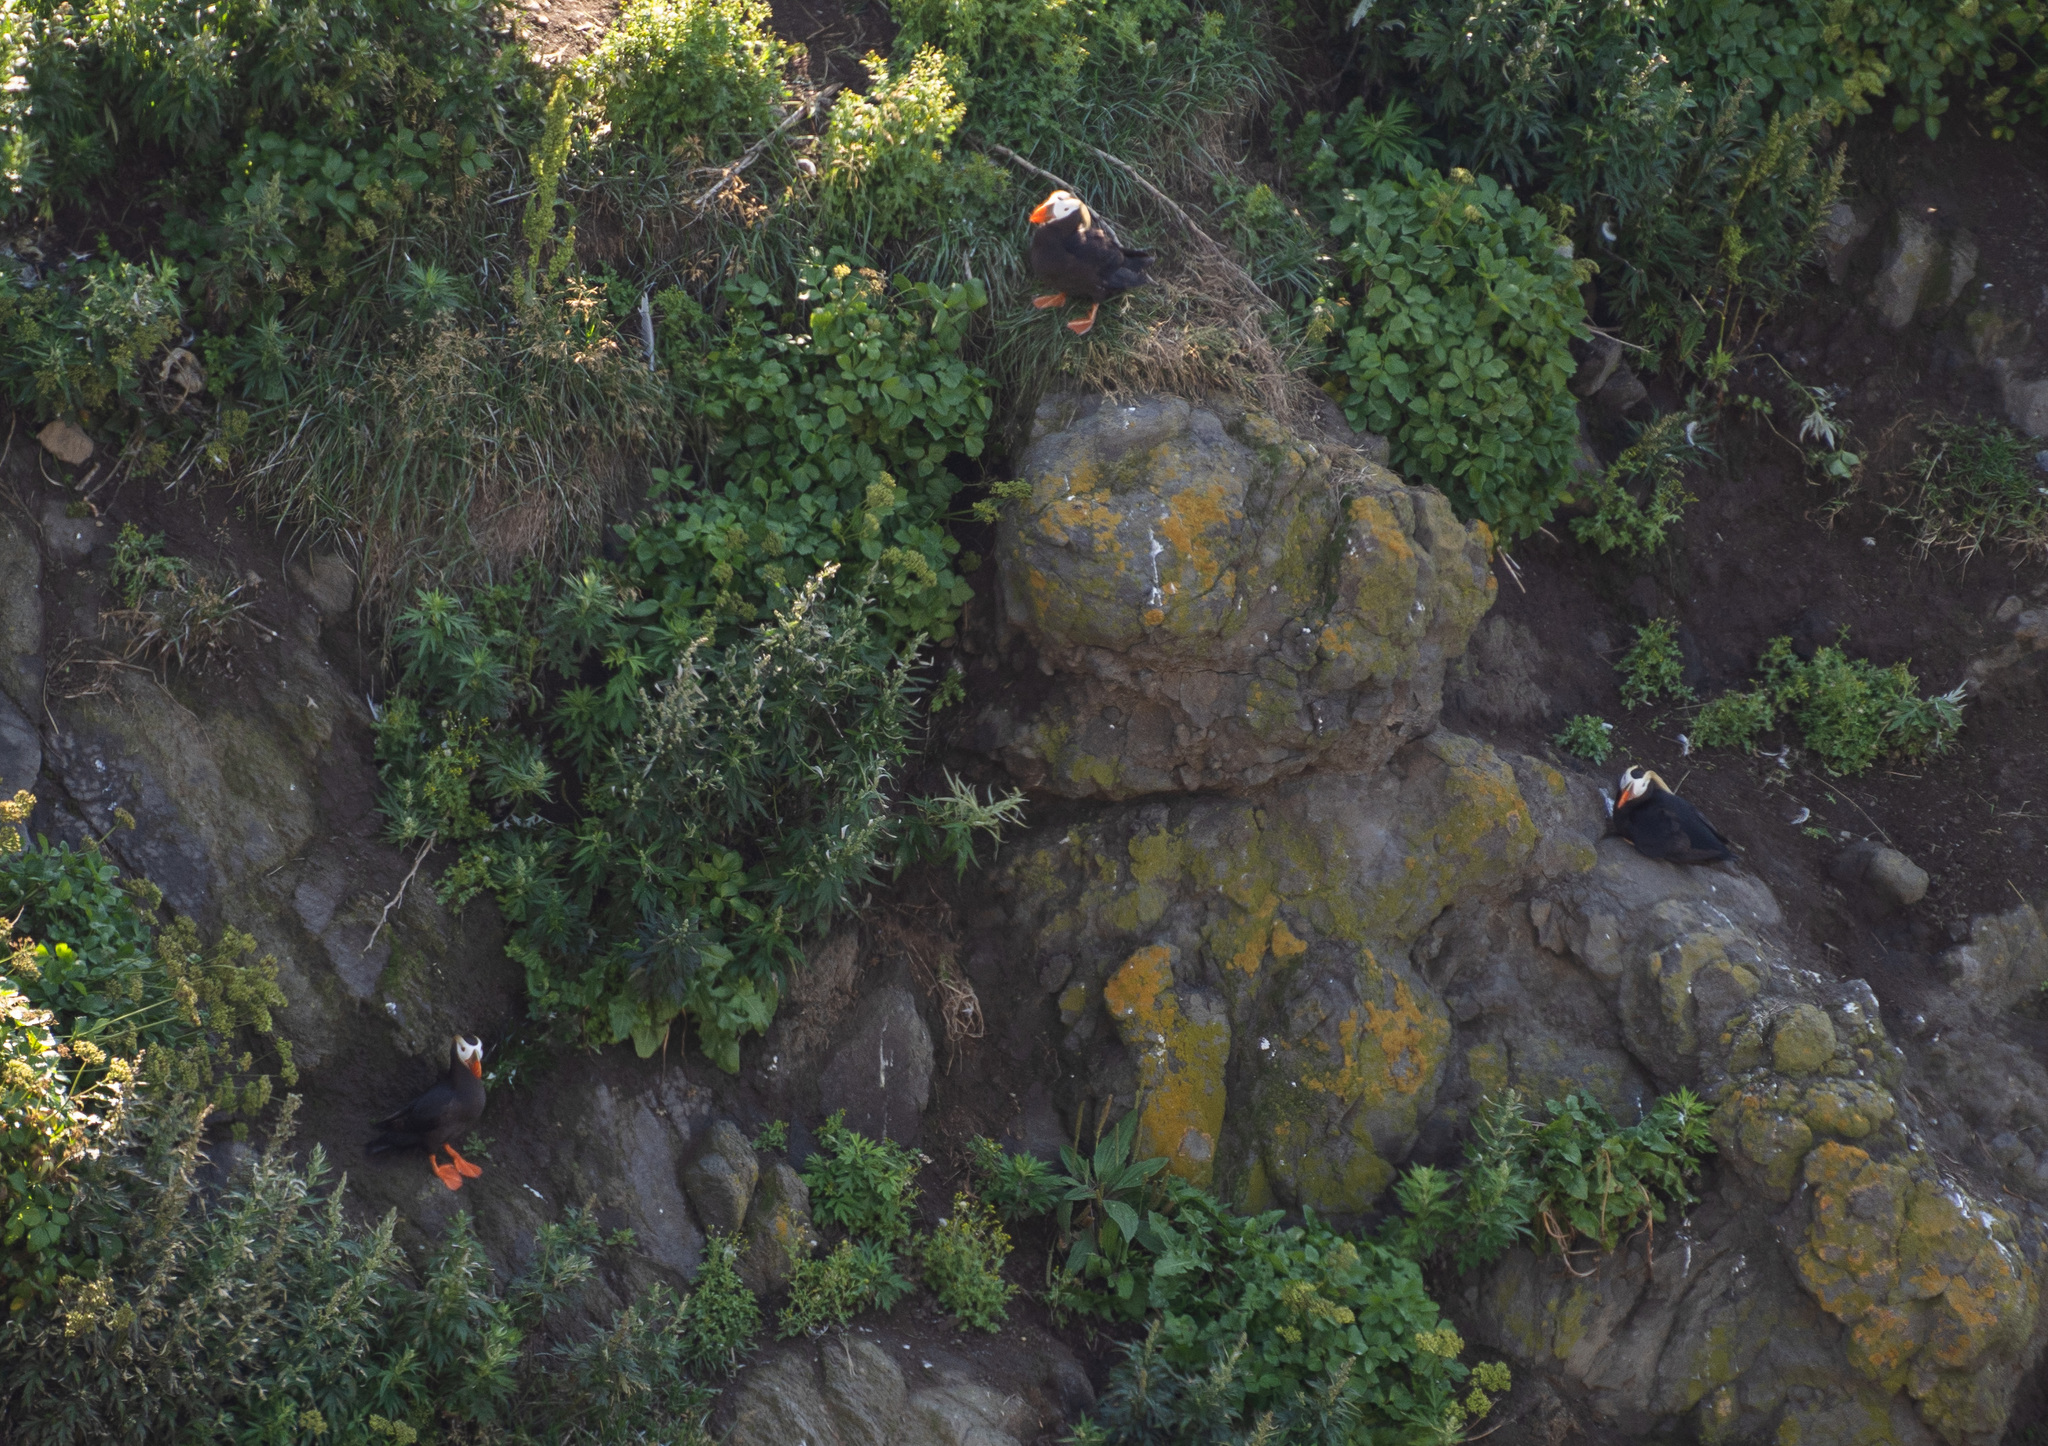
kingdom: Animalia
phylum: Chordata
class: Aves
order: Charadriiformes
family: Alcidae
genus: Fratercula
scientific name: Fratercula cirrhata
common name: Tufted puffin
